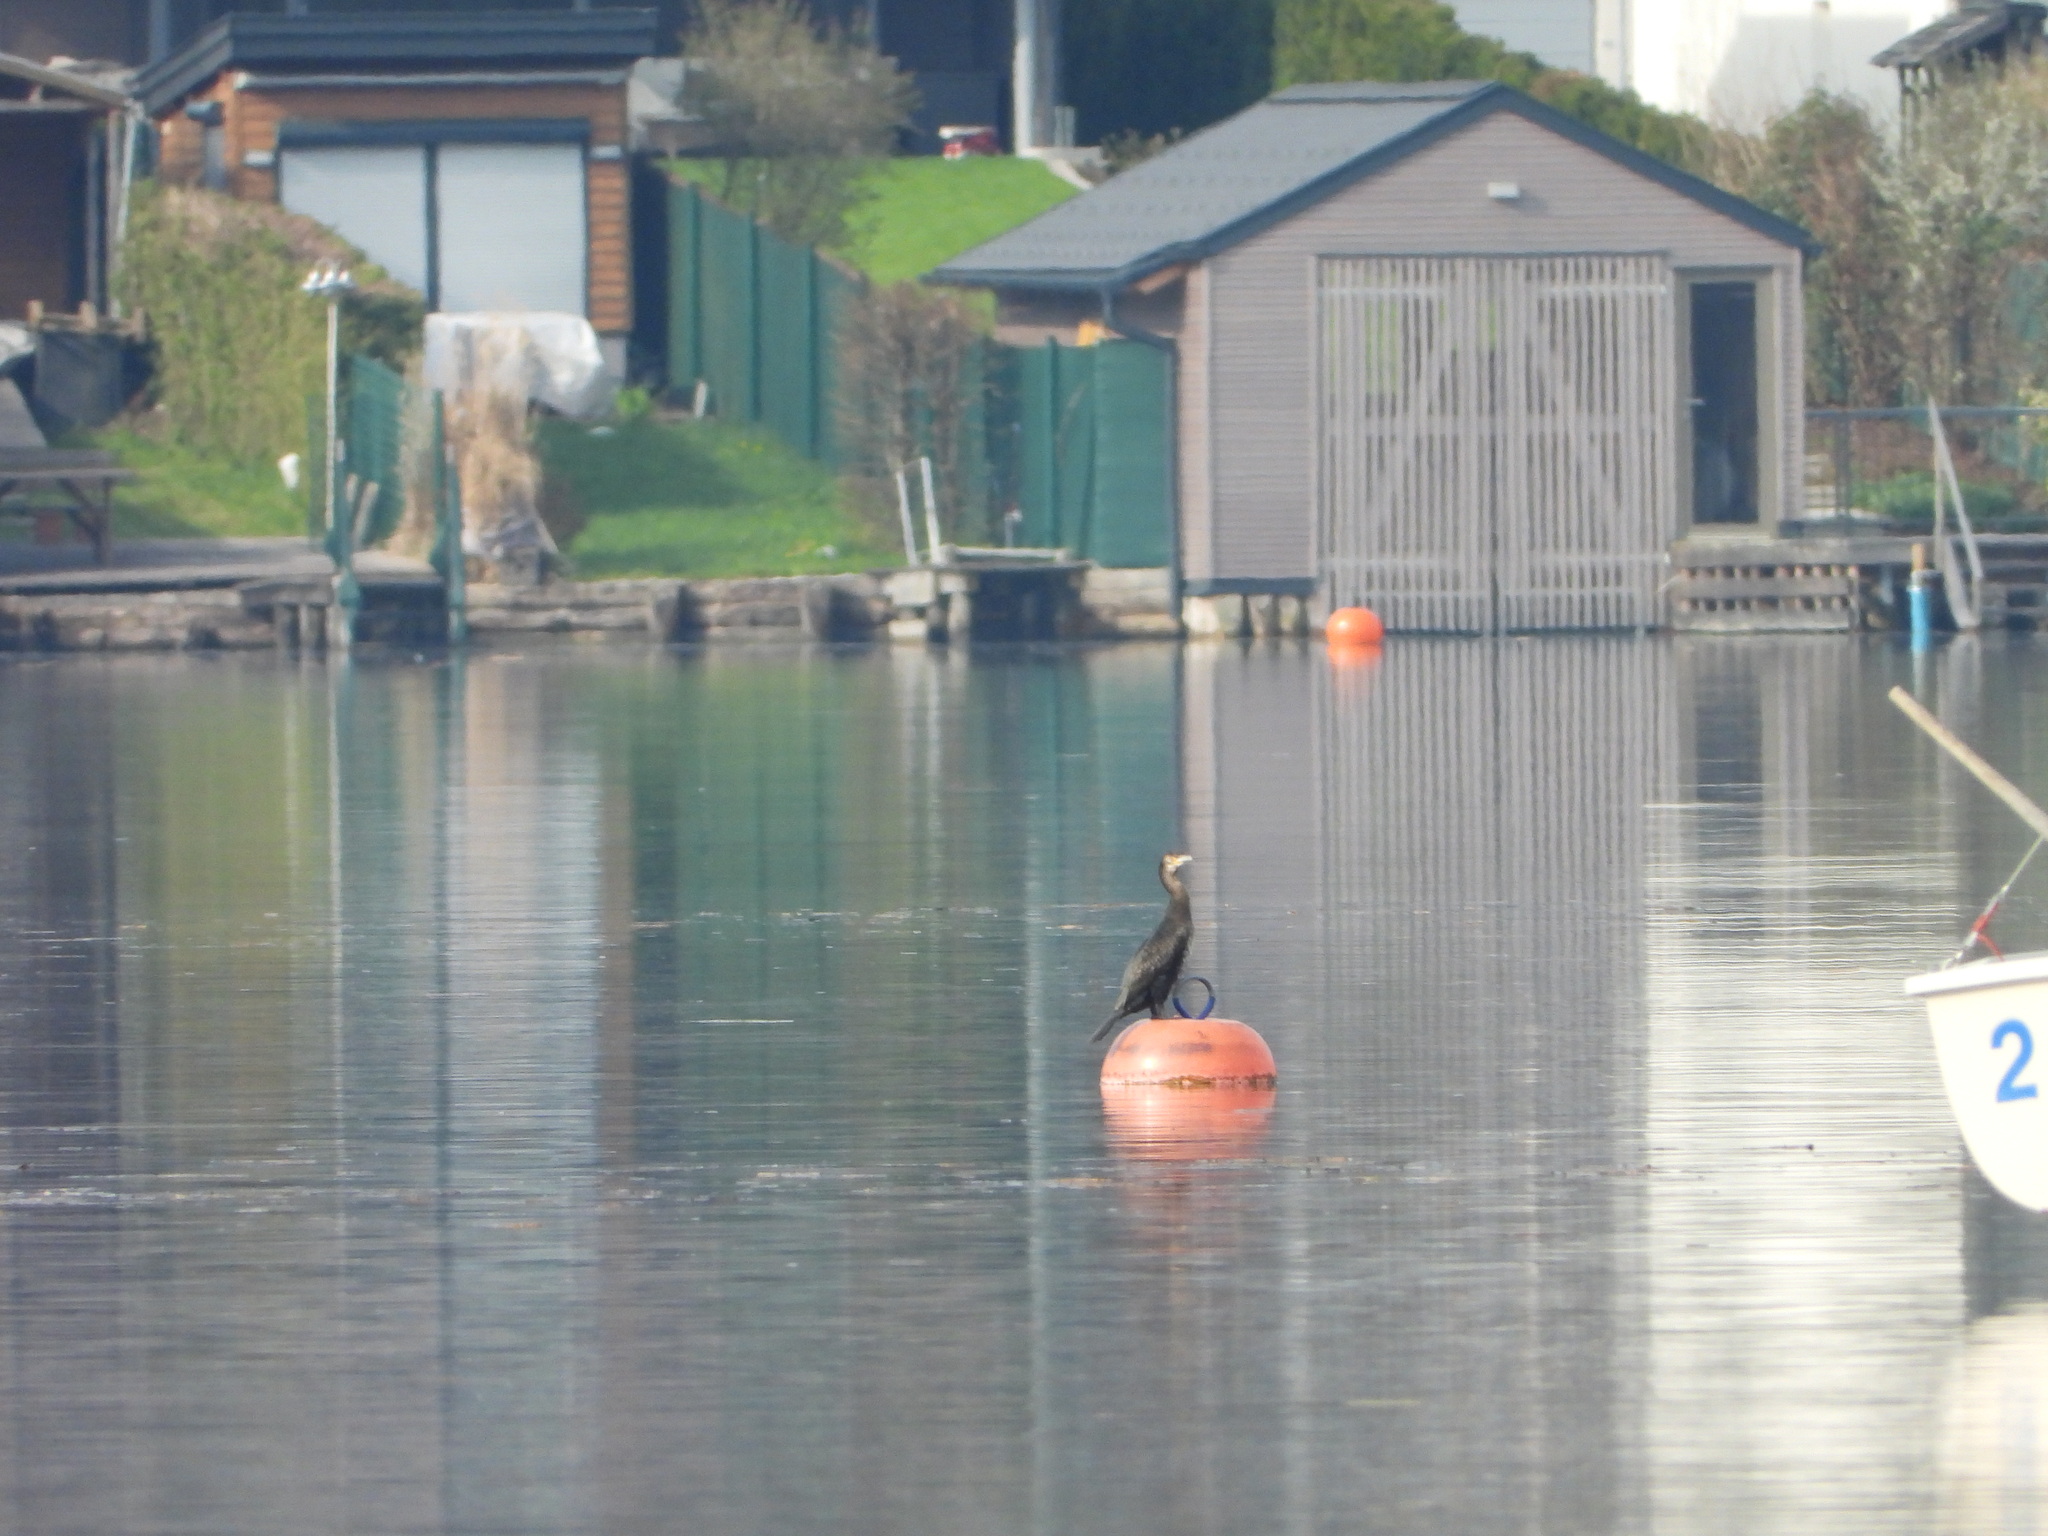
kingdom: Animalia
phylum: Chordata
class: Aves
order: Suliformes
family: Phalacrocoracidae
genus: Phalacrocorax
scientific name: Phalacrocorax carbo
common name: Great cormorant
